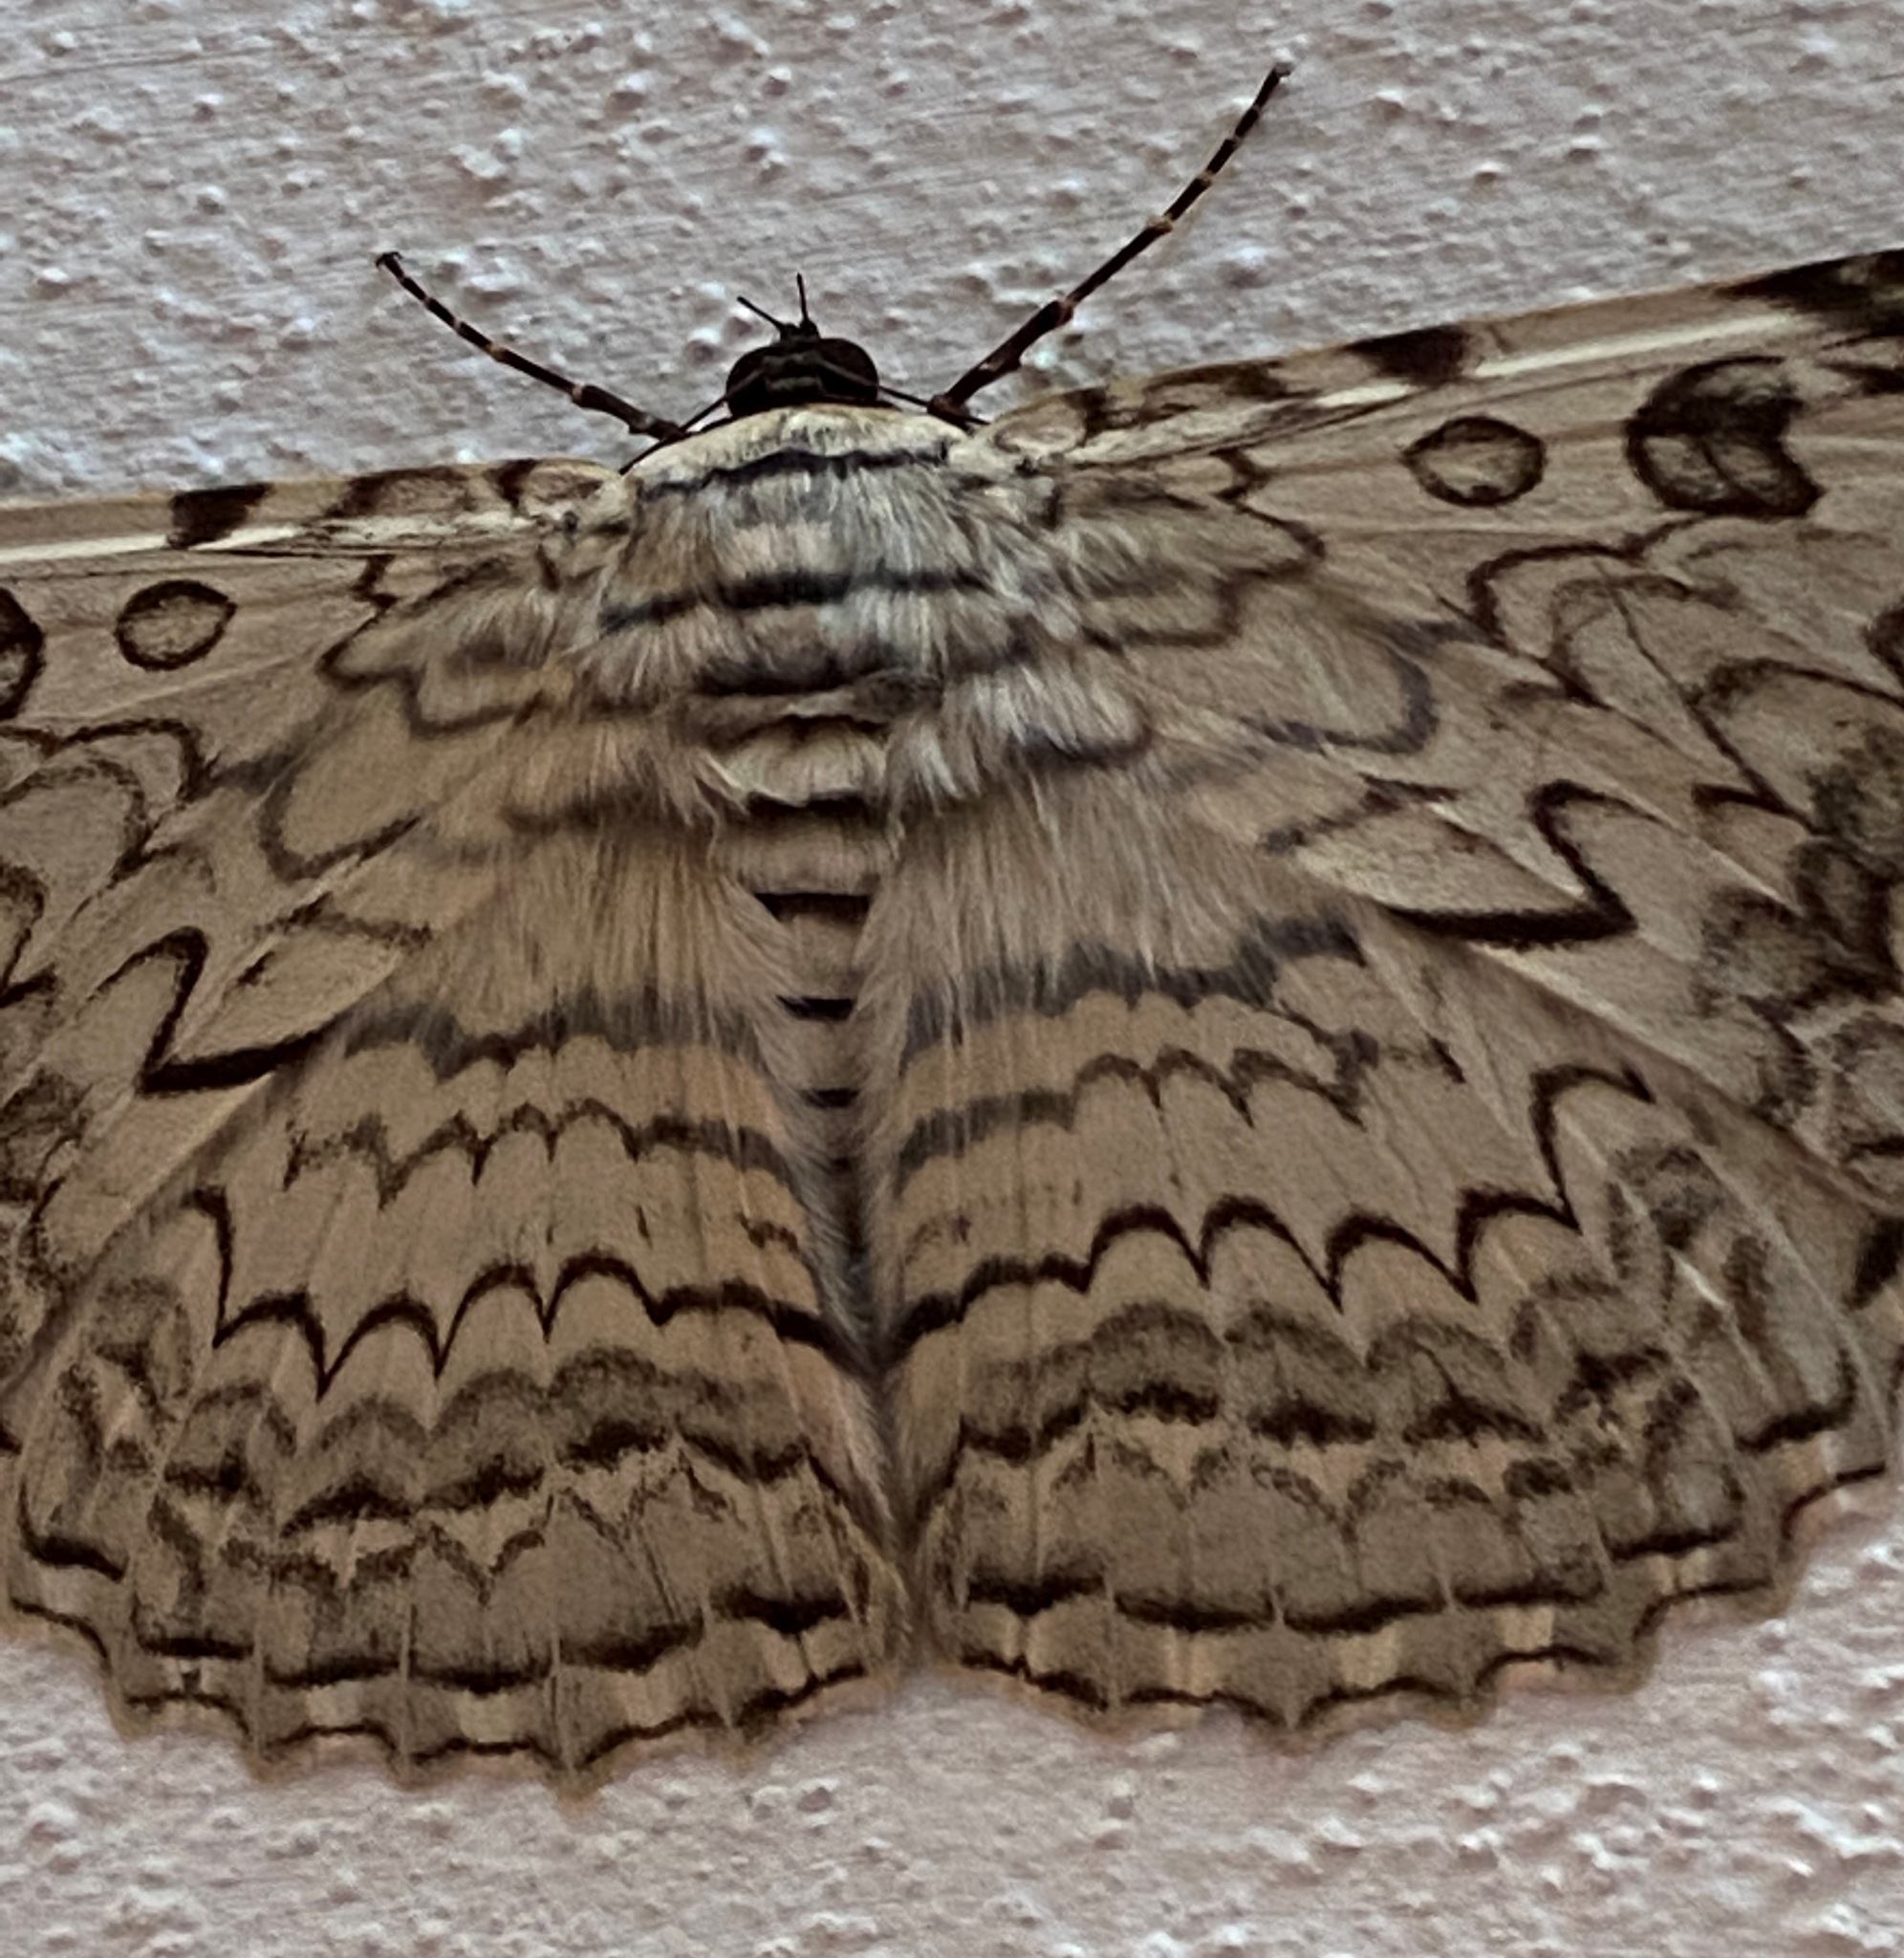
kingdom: Animalia
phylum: Arthropoda
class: Insecta
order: Lepidoptera
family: Erebidae
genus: Thysania
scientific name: Thysania agrippina
